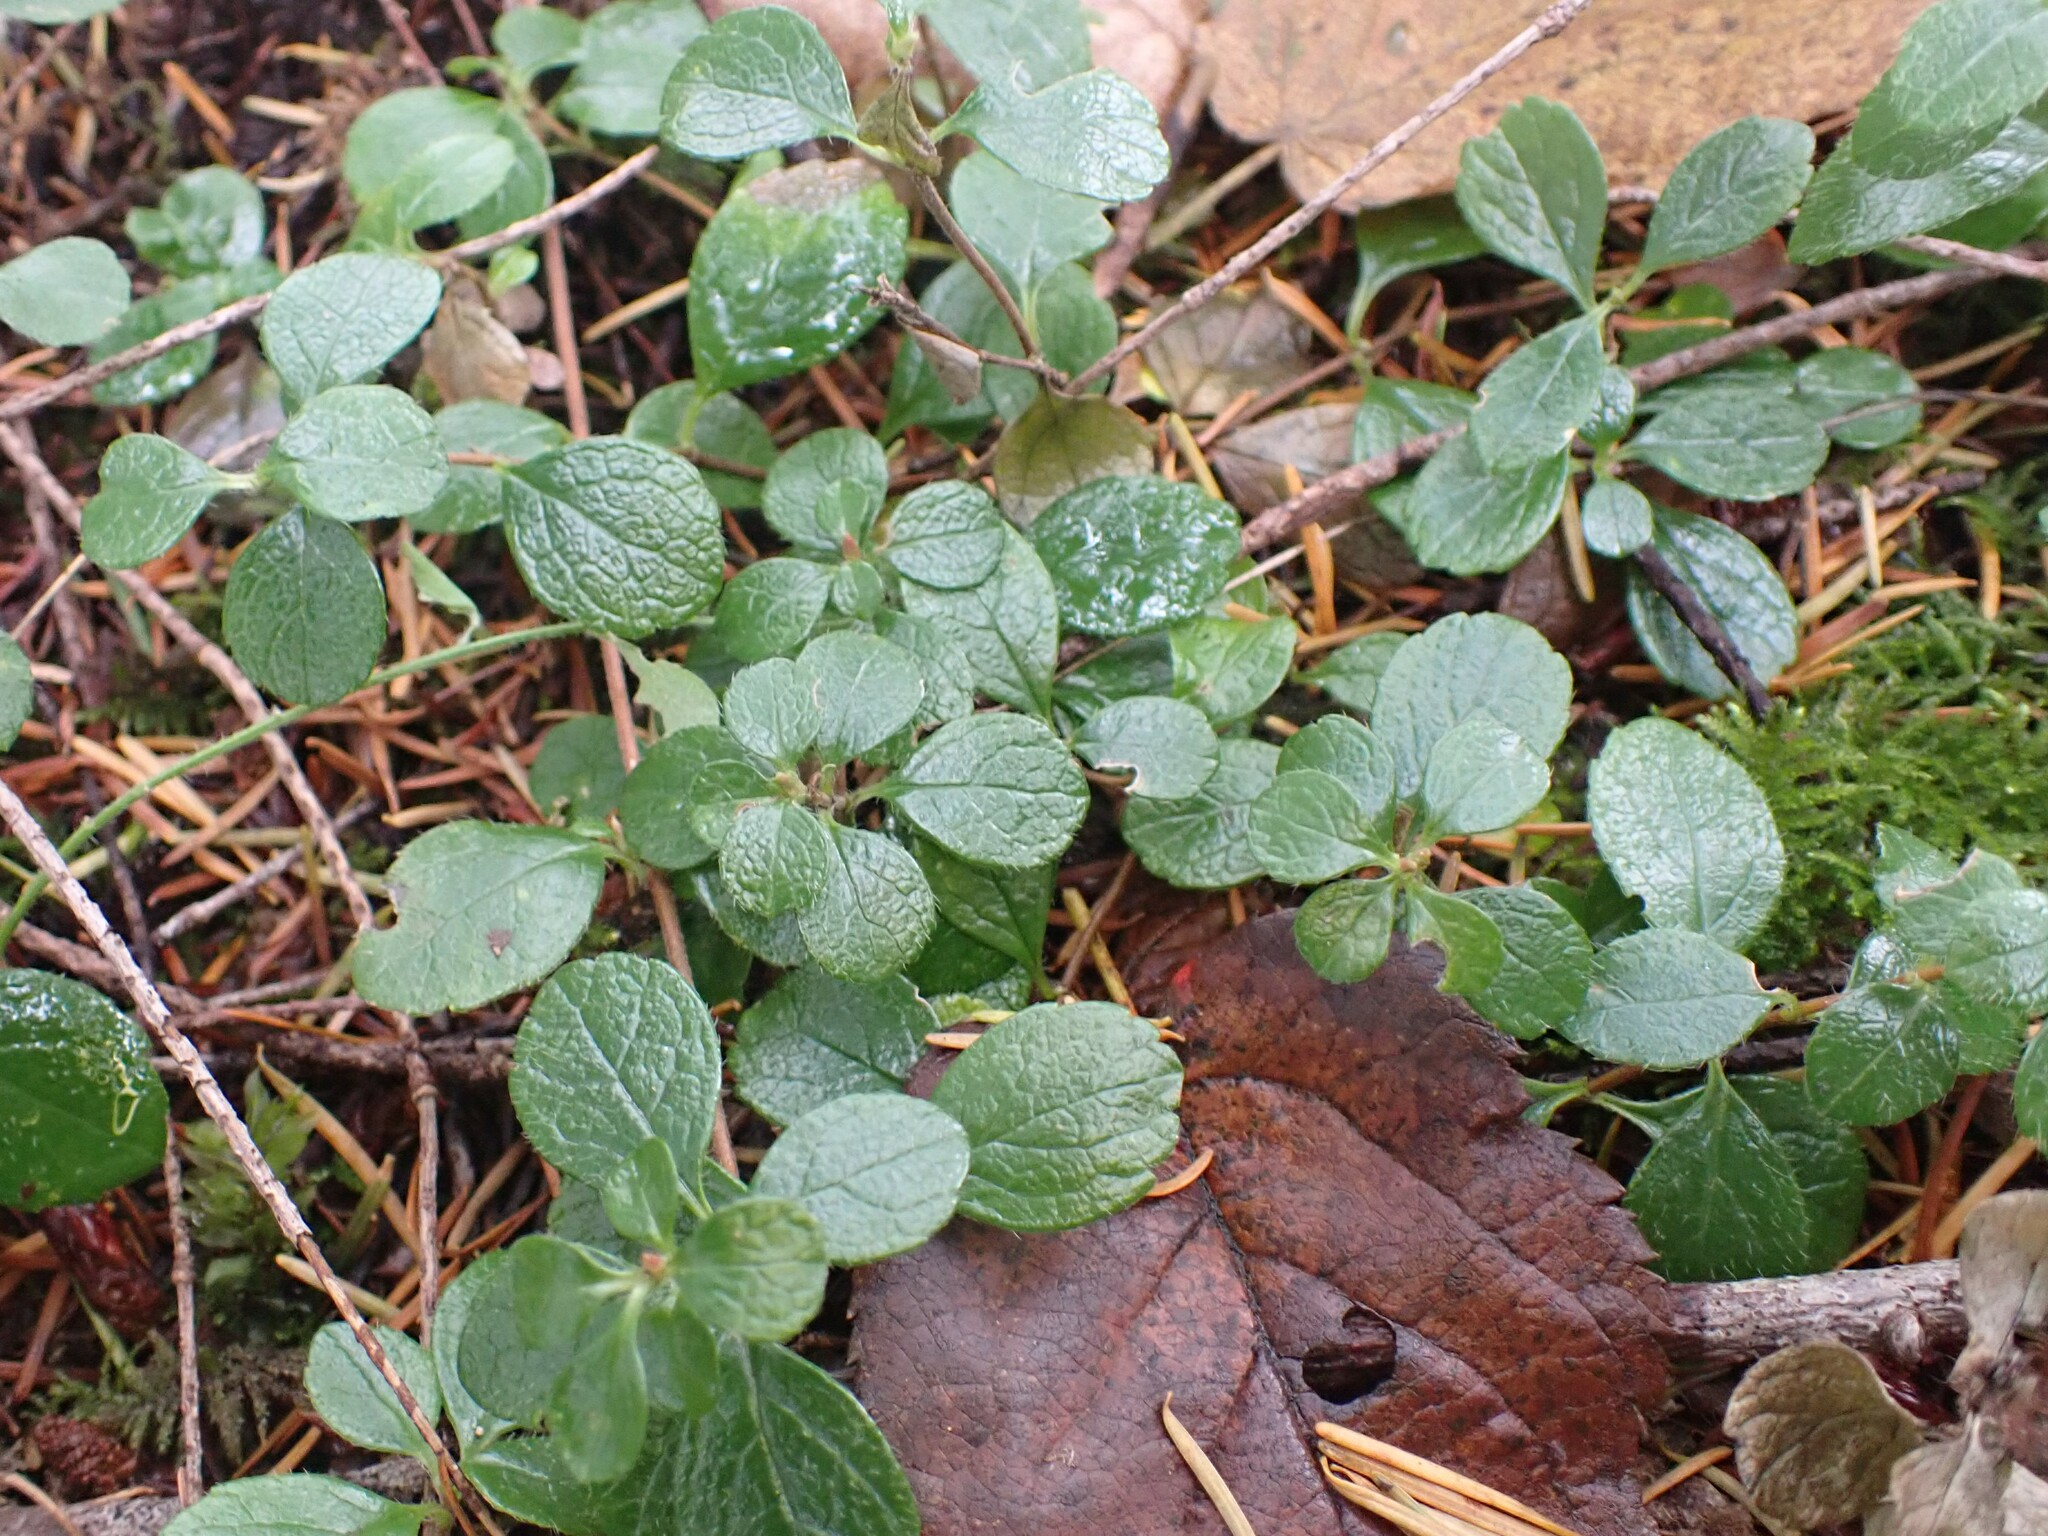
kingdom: Plantae
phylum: Tracheophyta
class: Magnoliopsida
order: Dipsacales
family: Caprifoliaceae
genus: Linnaea
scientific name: Linnaea borealis
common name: Twinflower
